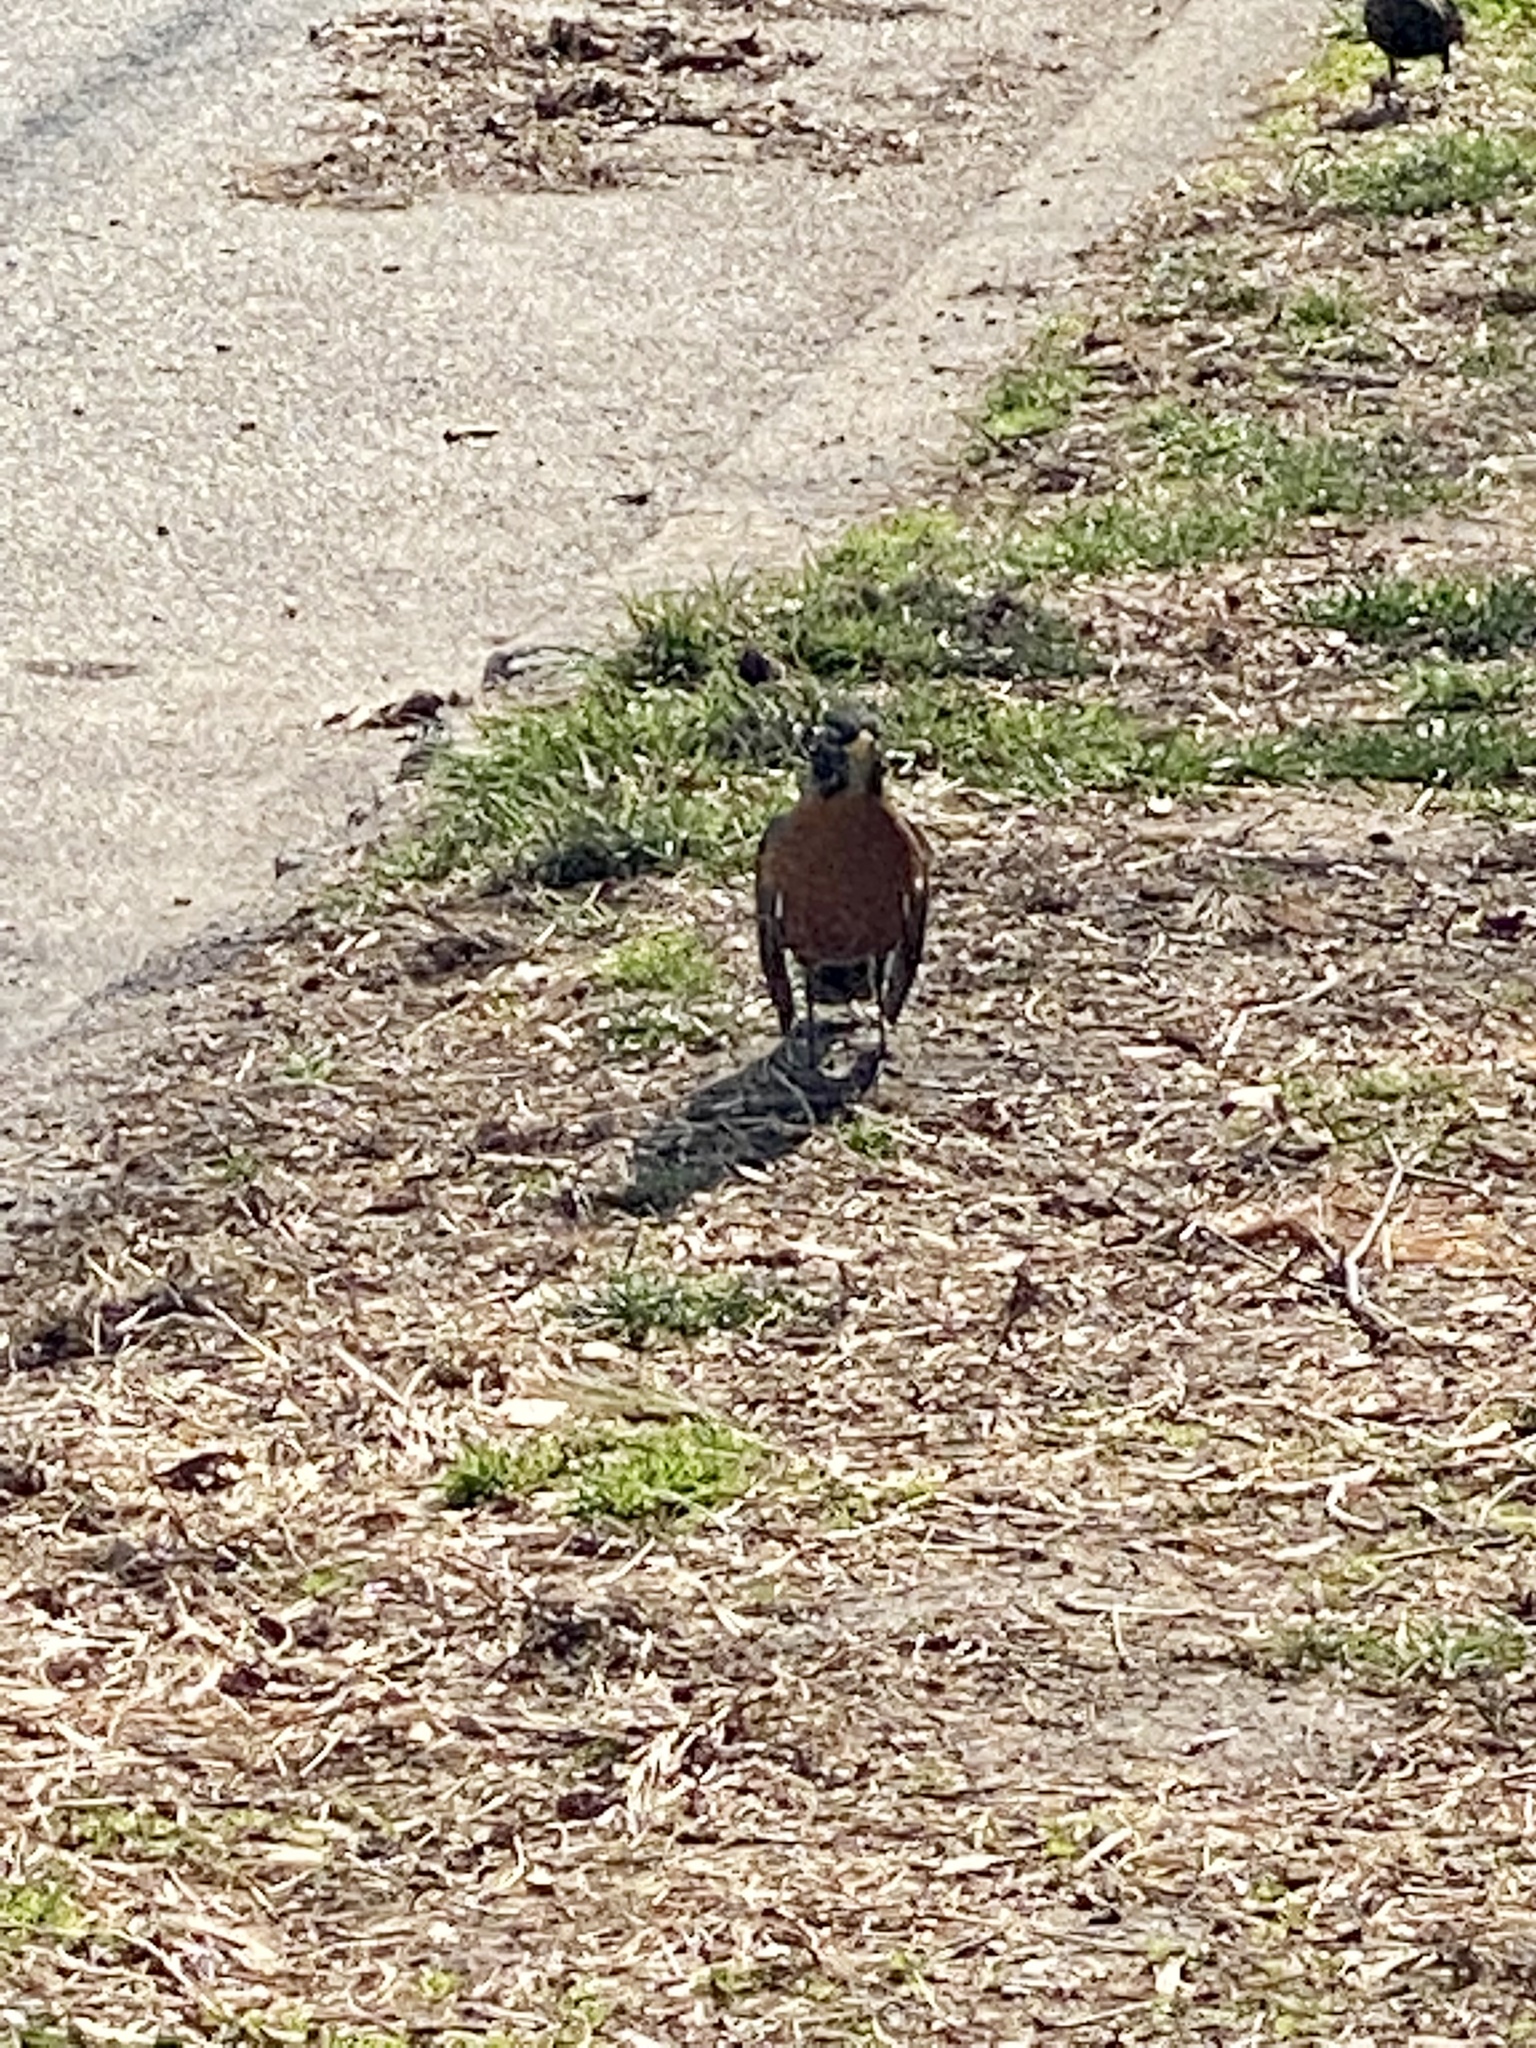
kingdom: Animalia
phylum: Chordata
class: Aves
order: Passeriformes
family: Turdidae
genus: Turdus
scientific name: Turdus migratorius
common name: American robin
